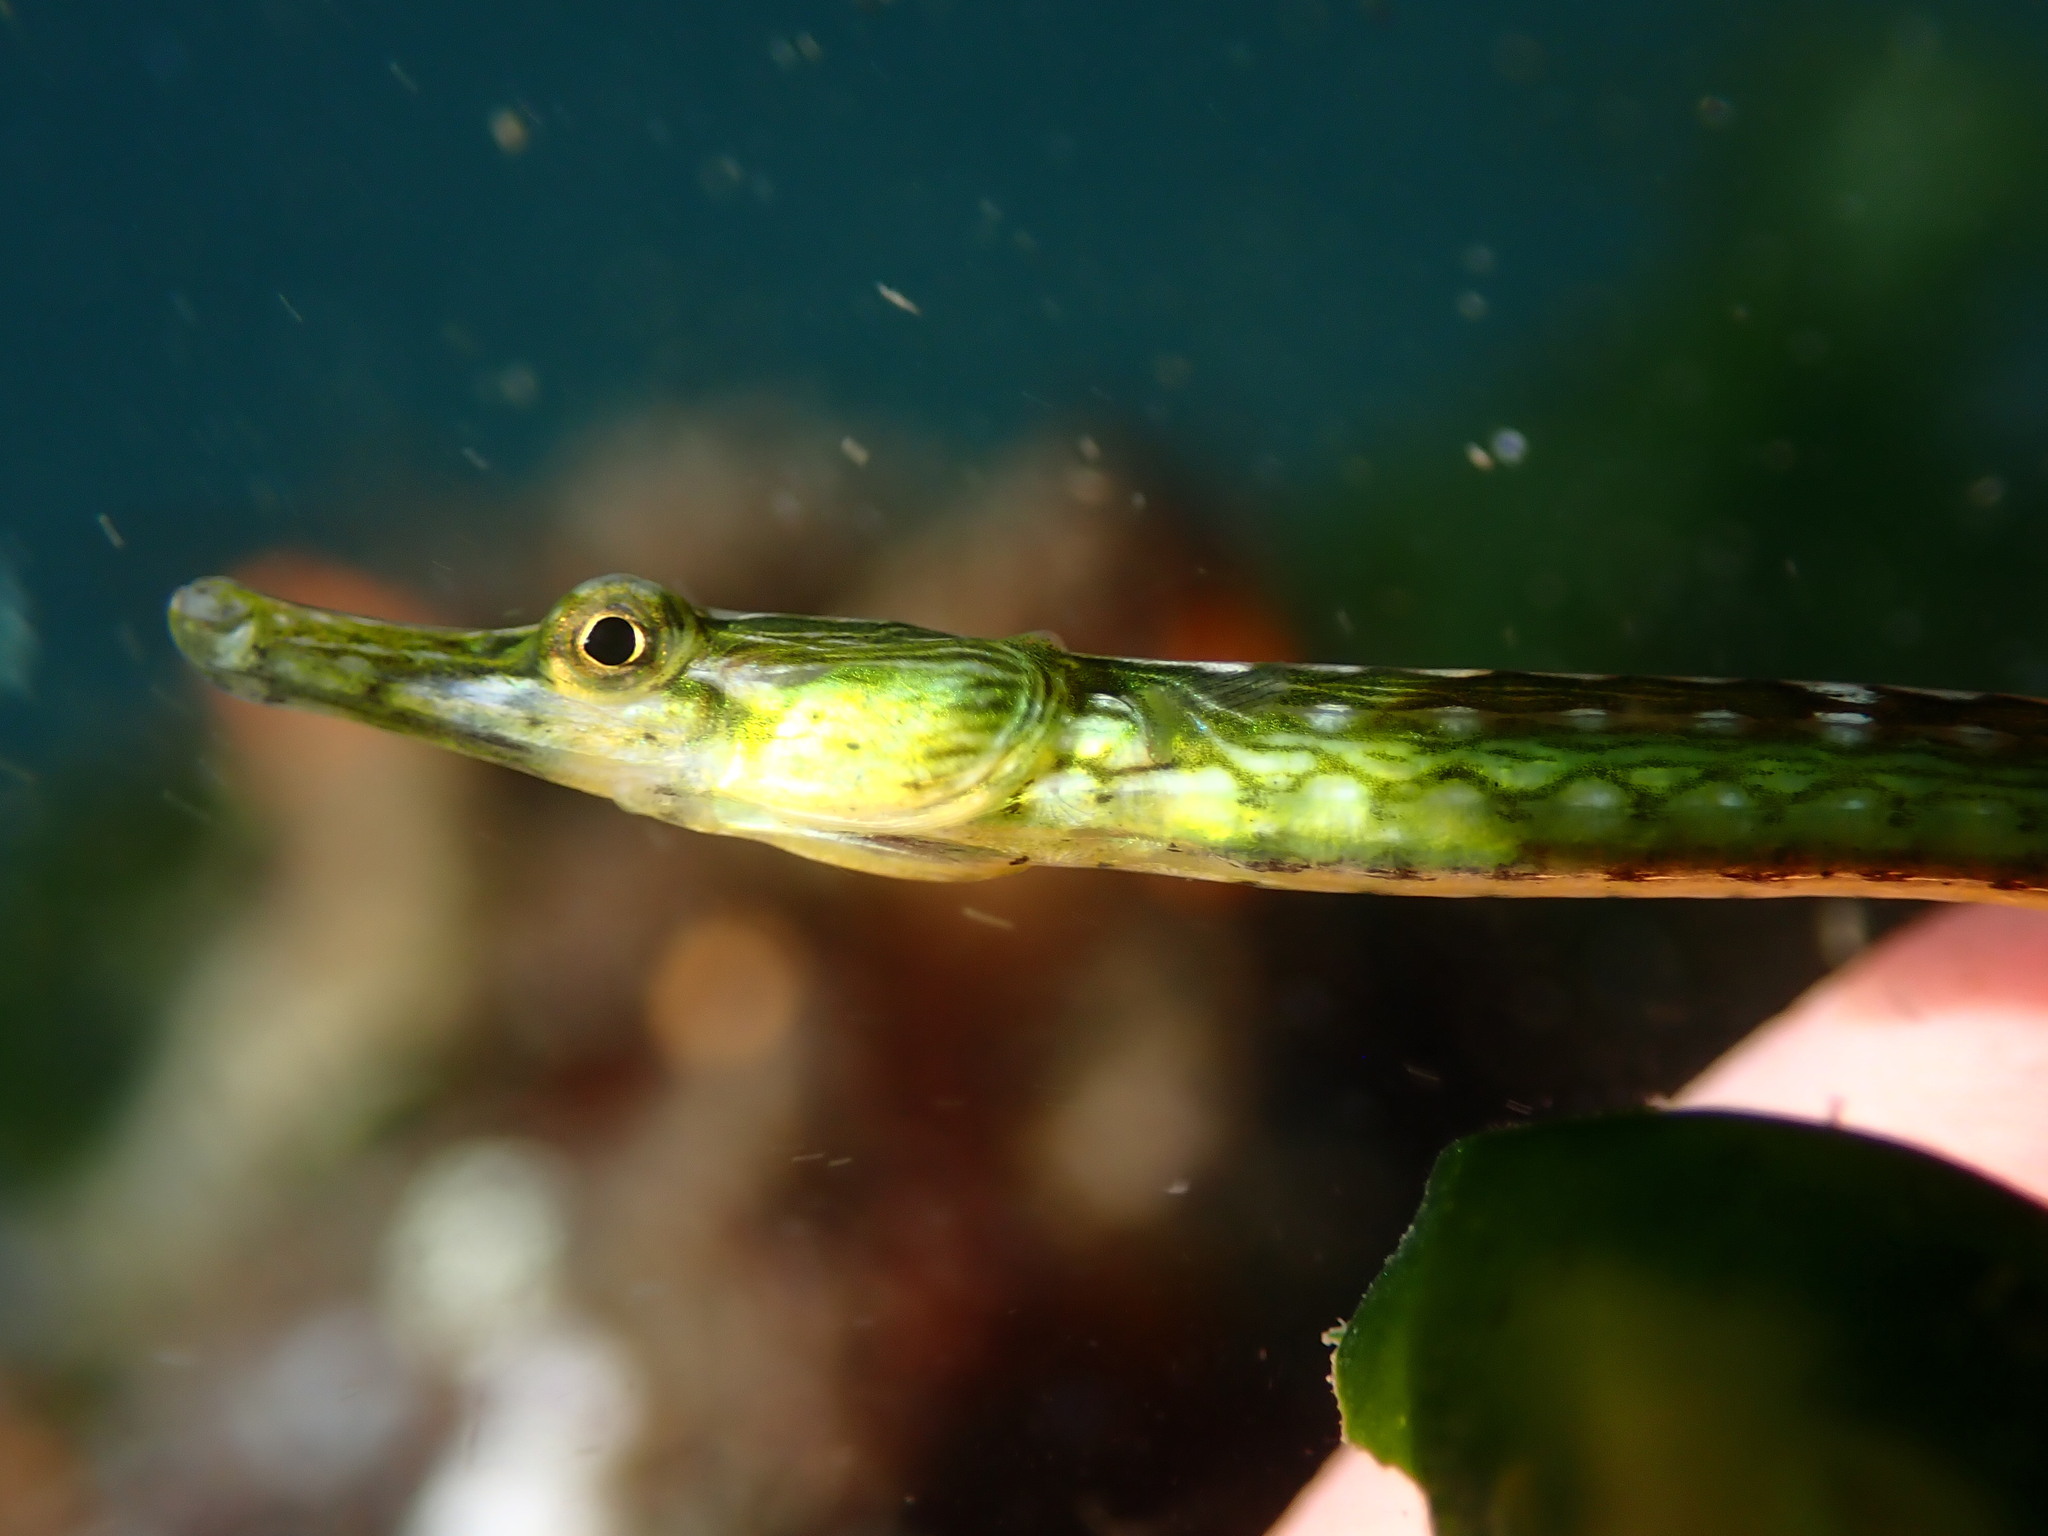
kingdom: Animalia
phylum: Chordata
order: Syngnathiformes
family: Syngnathidae
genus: Syngnathus
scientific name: Syngnathus californiensis
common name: Great pipefish
